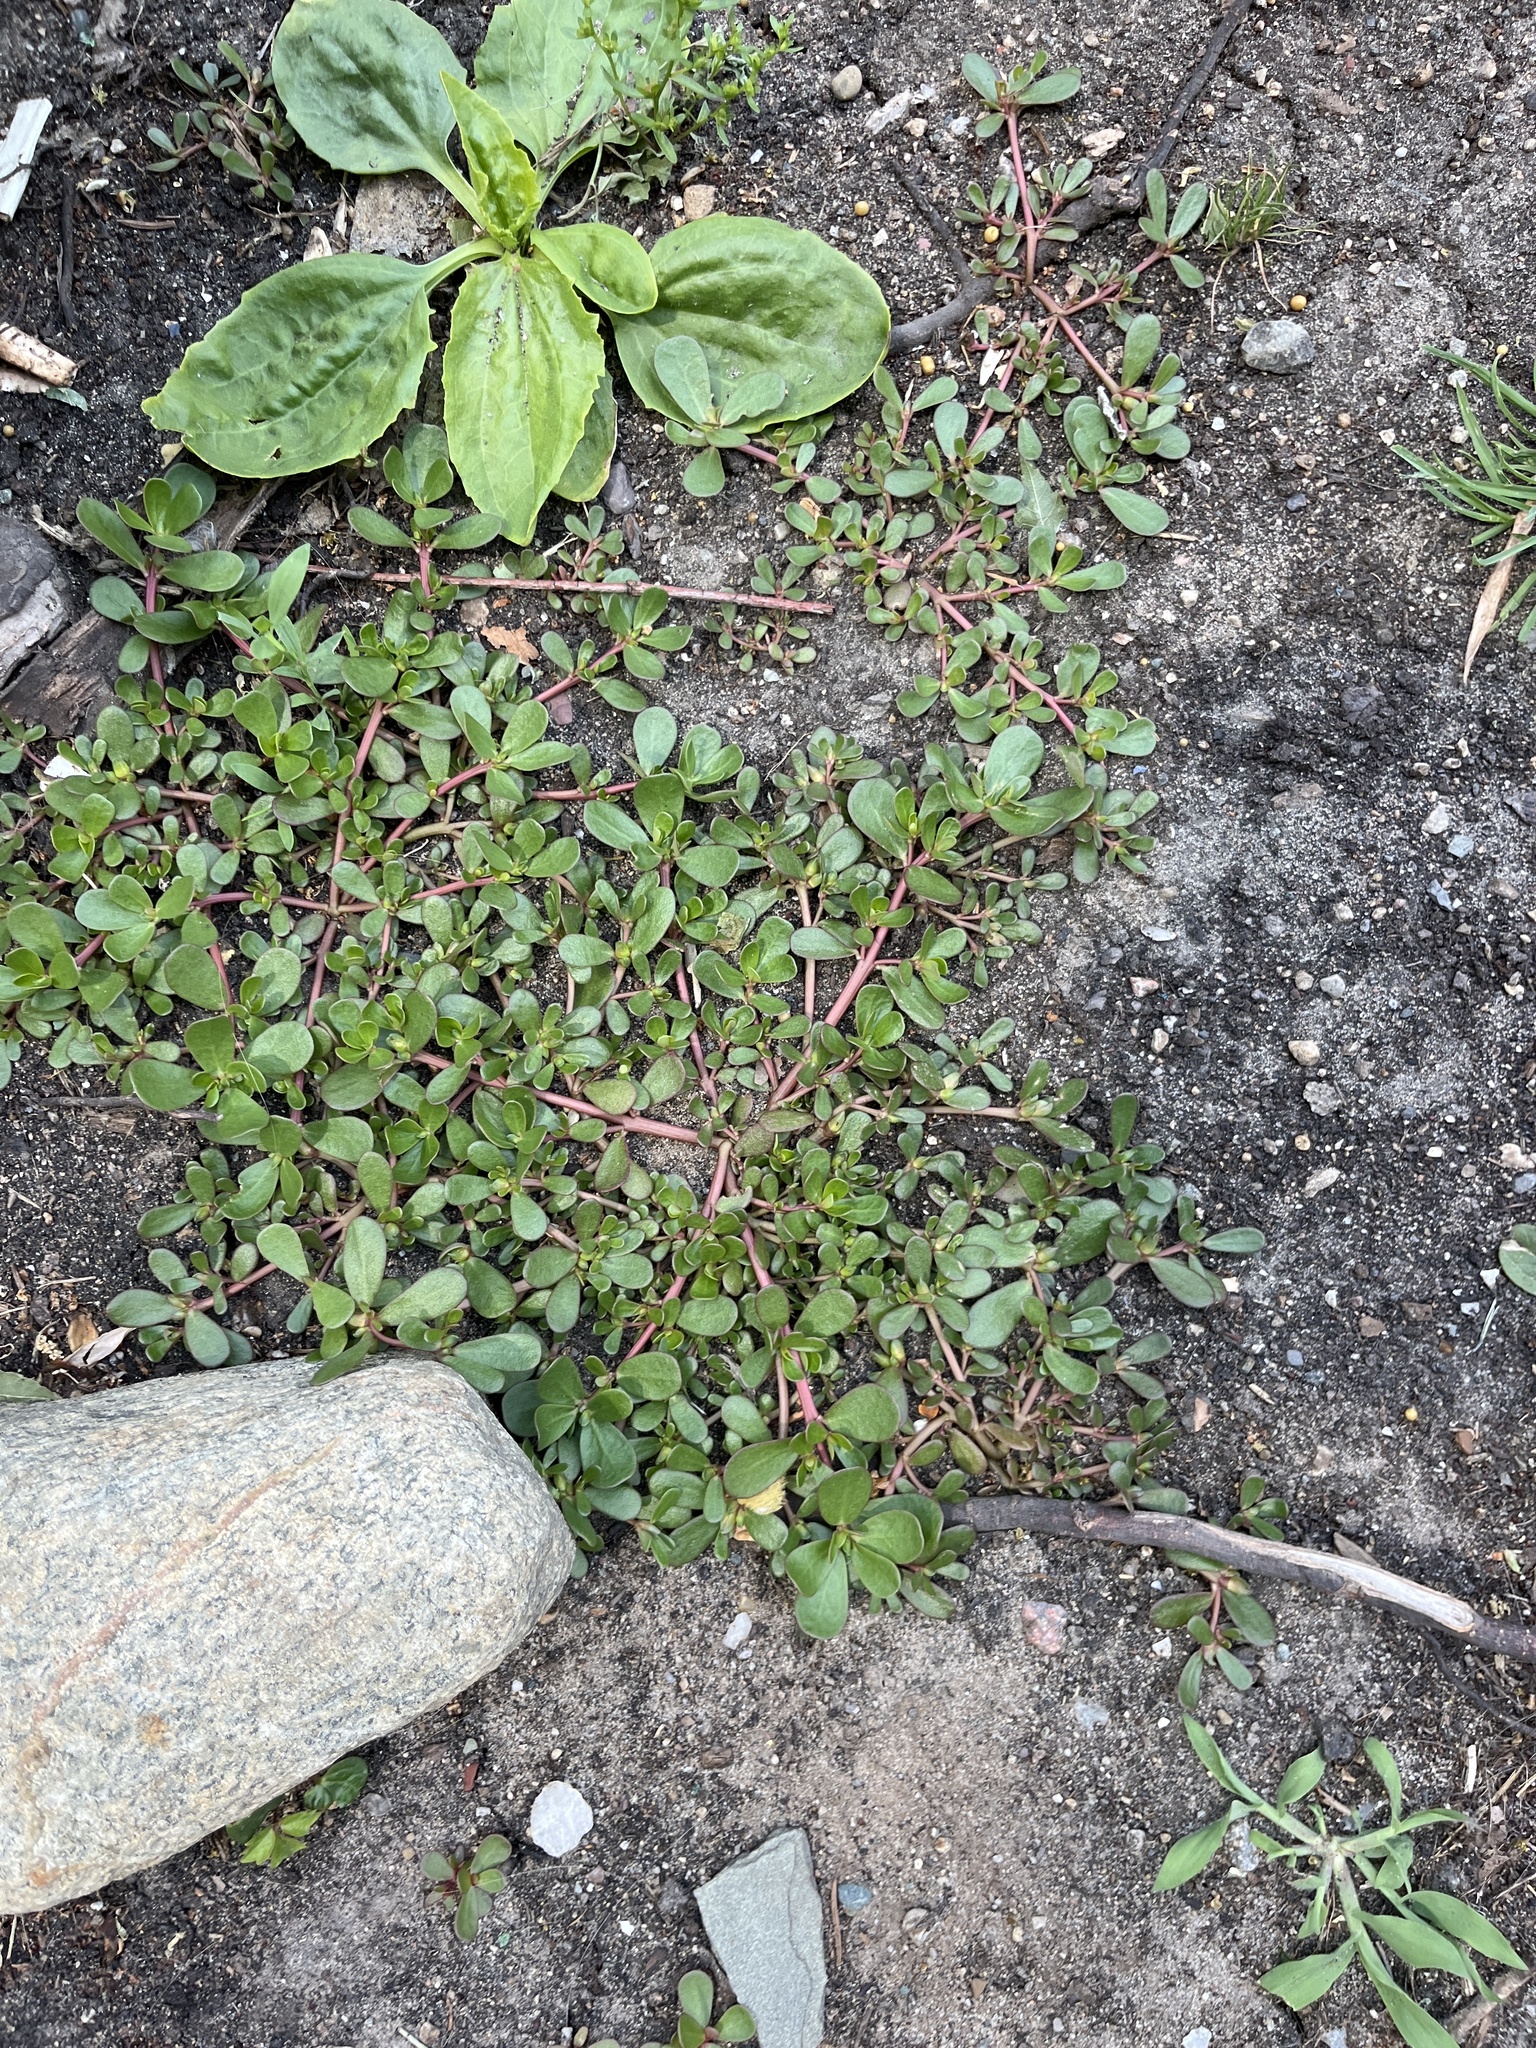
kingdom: Plantae
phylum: Tracheophyta
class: Magnoliopsida
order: Caryophyllales
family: Portulacaceae
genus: Portulaca
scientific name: Portulaca oleracea
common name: Common purslane
